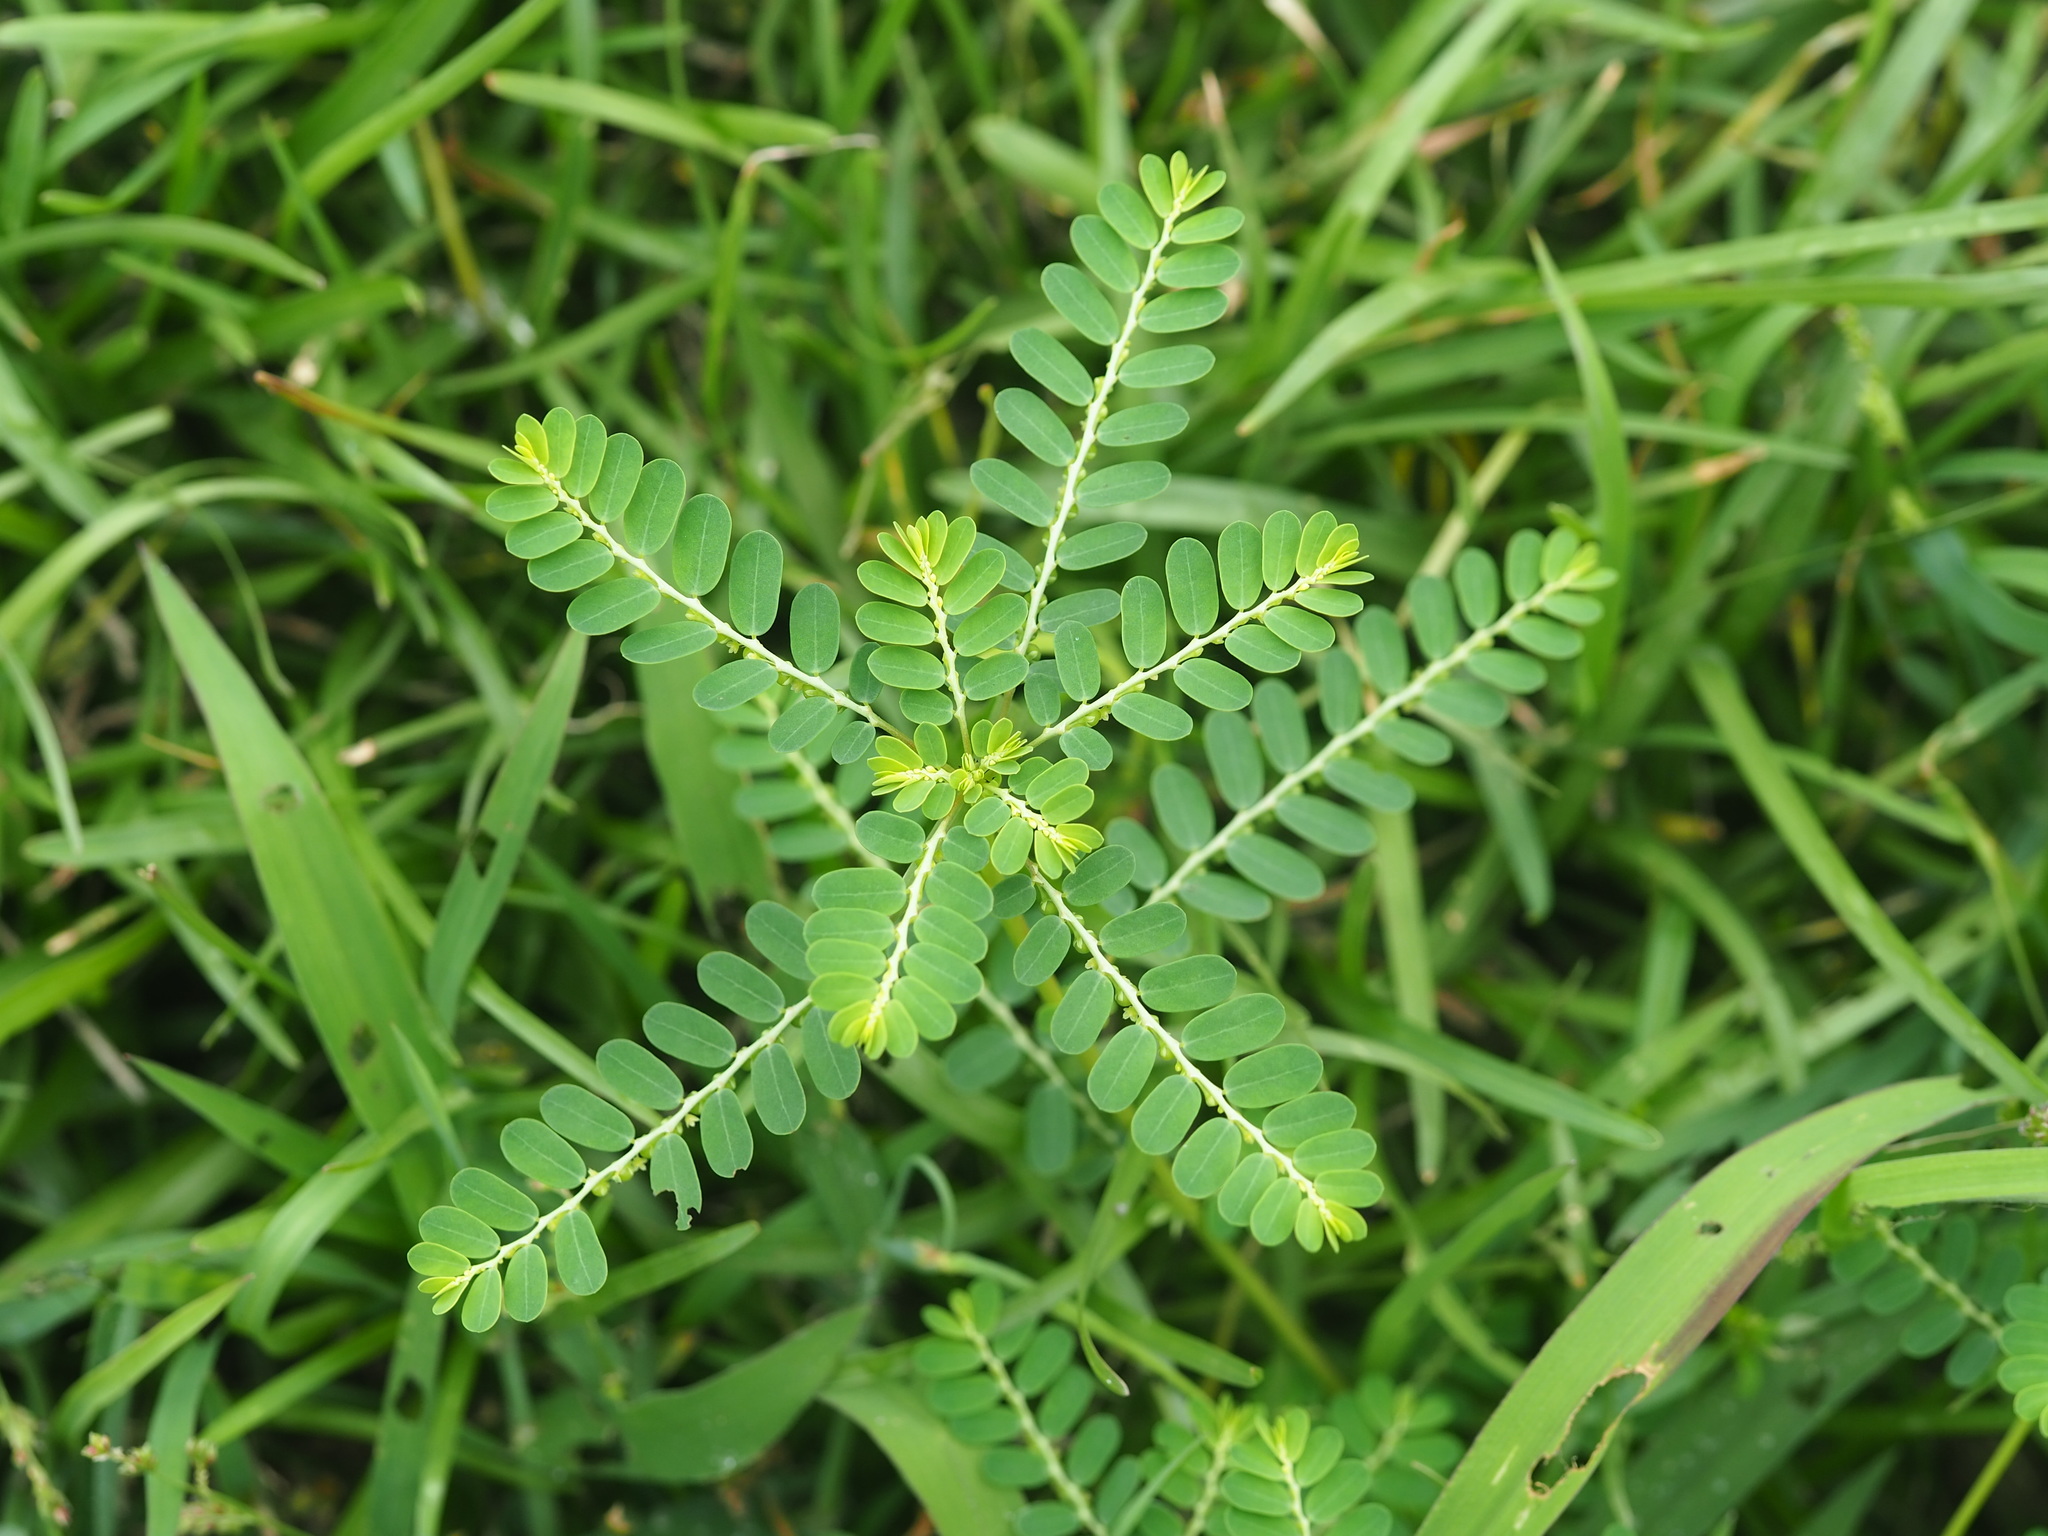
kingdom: Plantae
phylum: Tracheophyta
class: Magnoliopsida
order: Malpighiales
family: Phyllanthaceae
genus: Phyllanthus
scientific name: Phyllanthus amarus
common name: Carry me seed
